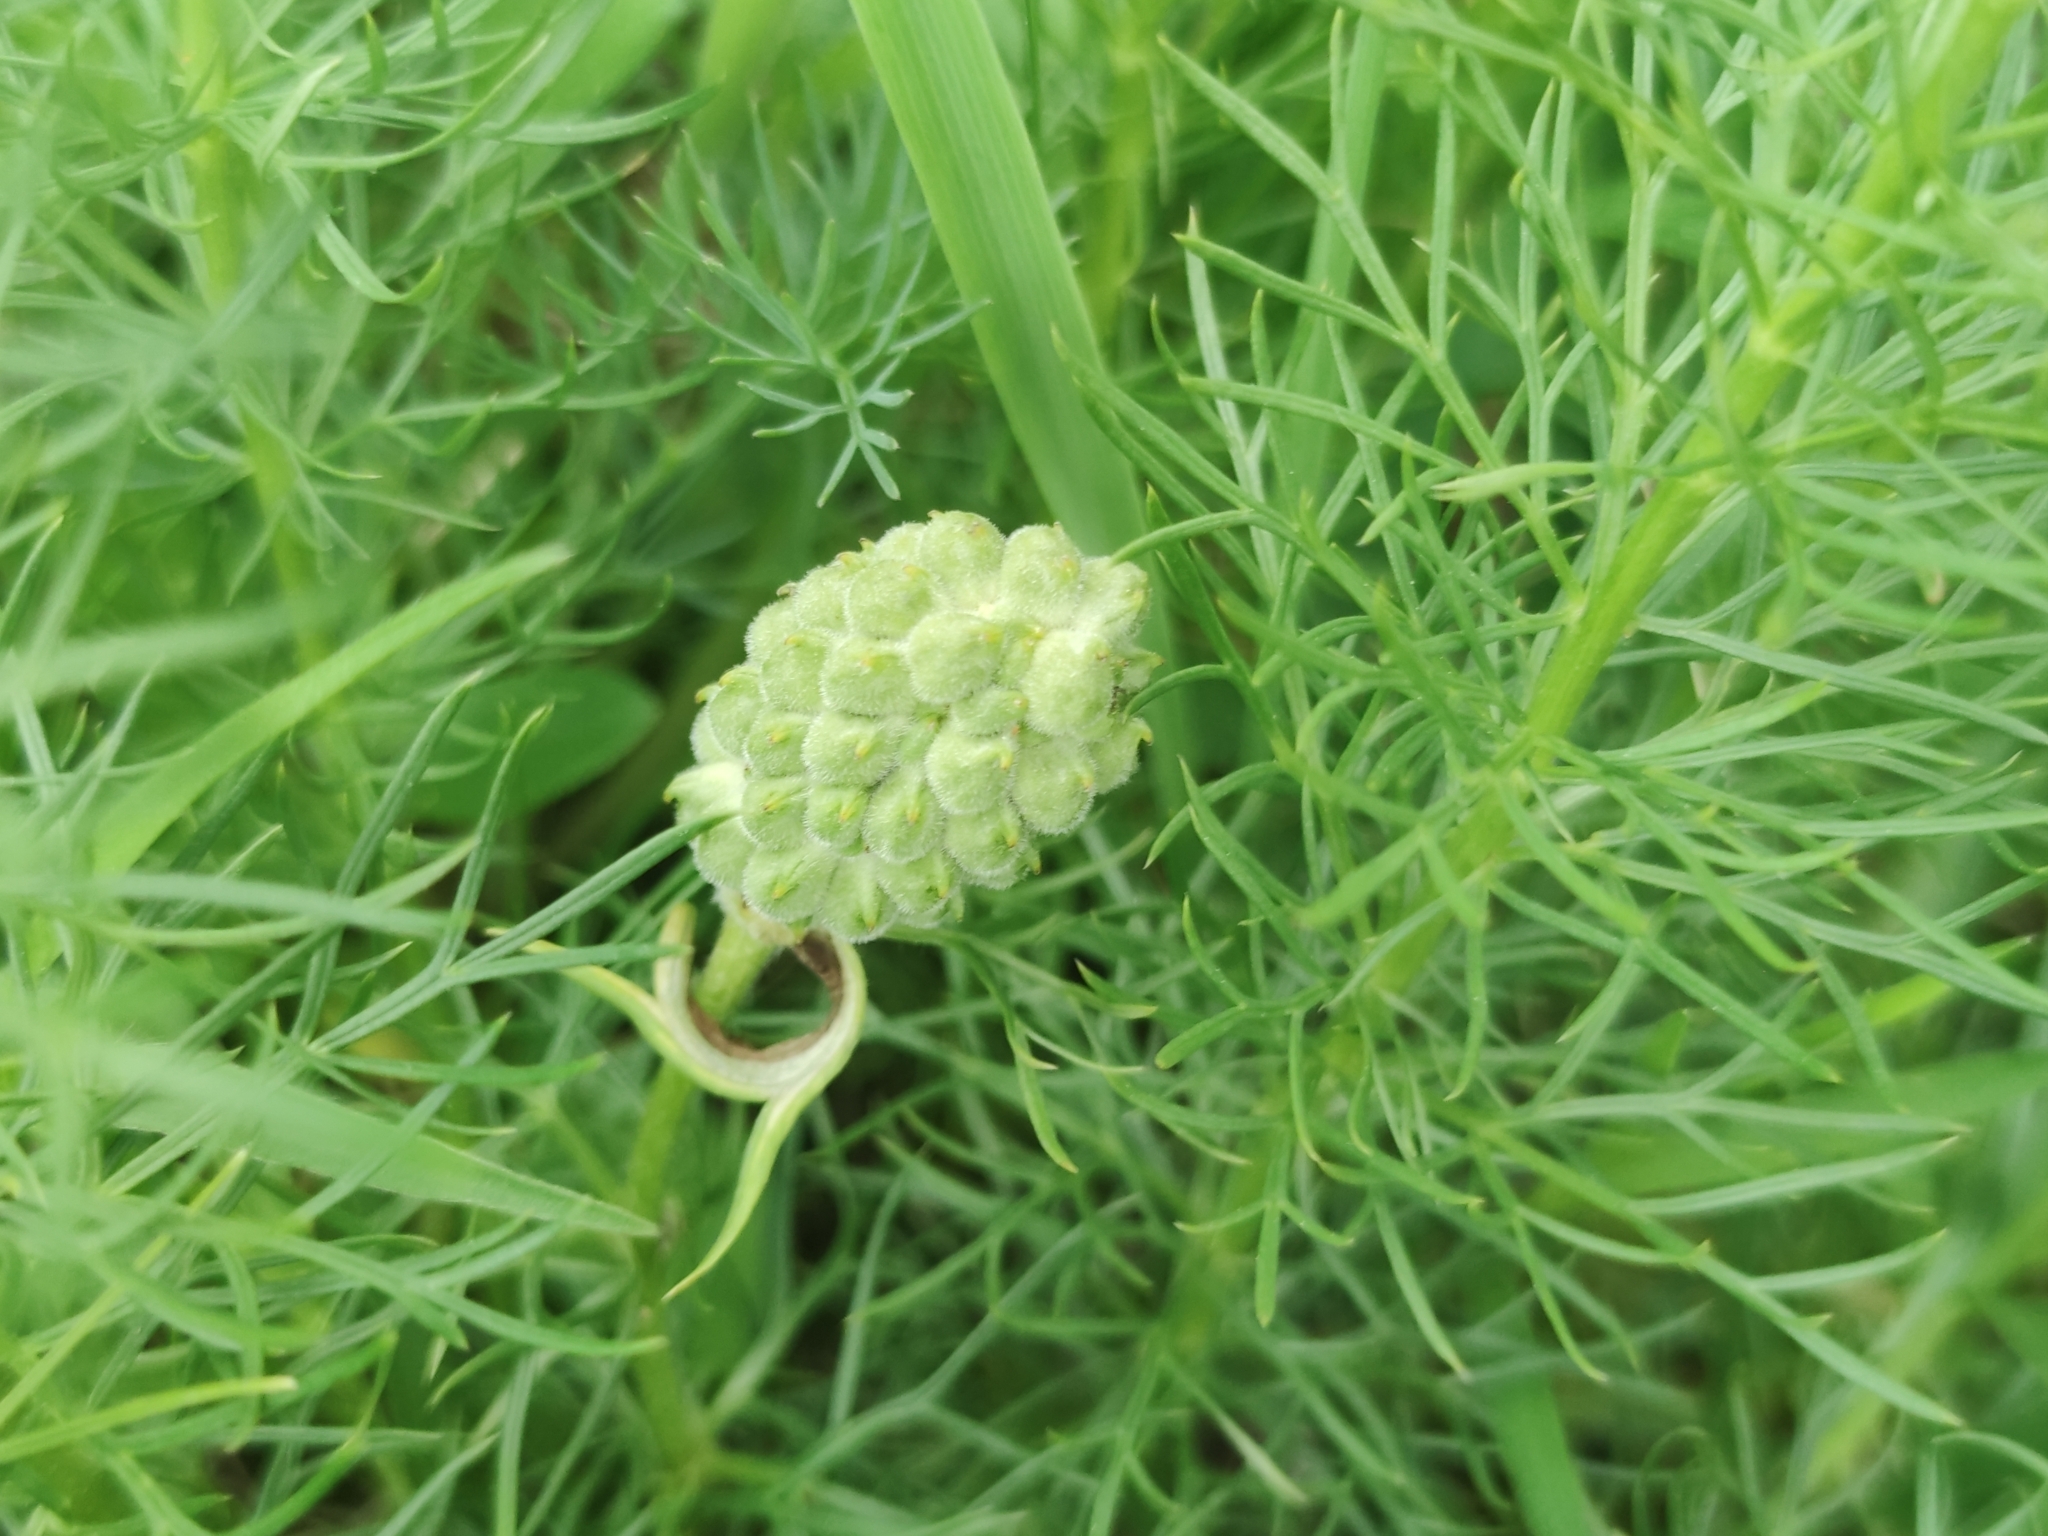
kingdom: Plantae
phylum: Tracheophyta
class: Magnoliopsida
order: Ranunculales
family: Ranunculaceae
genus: Adonis
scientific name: Adonis vernalis
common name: Yellow pheasants-eye
